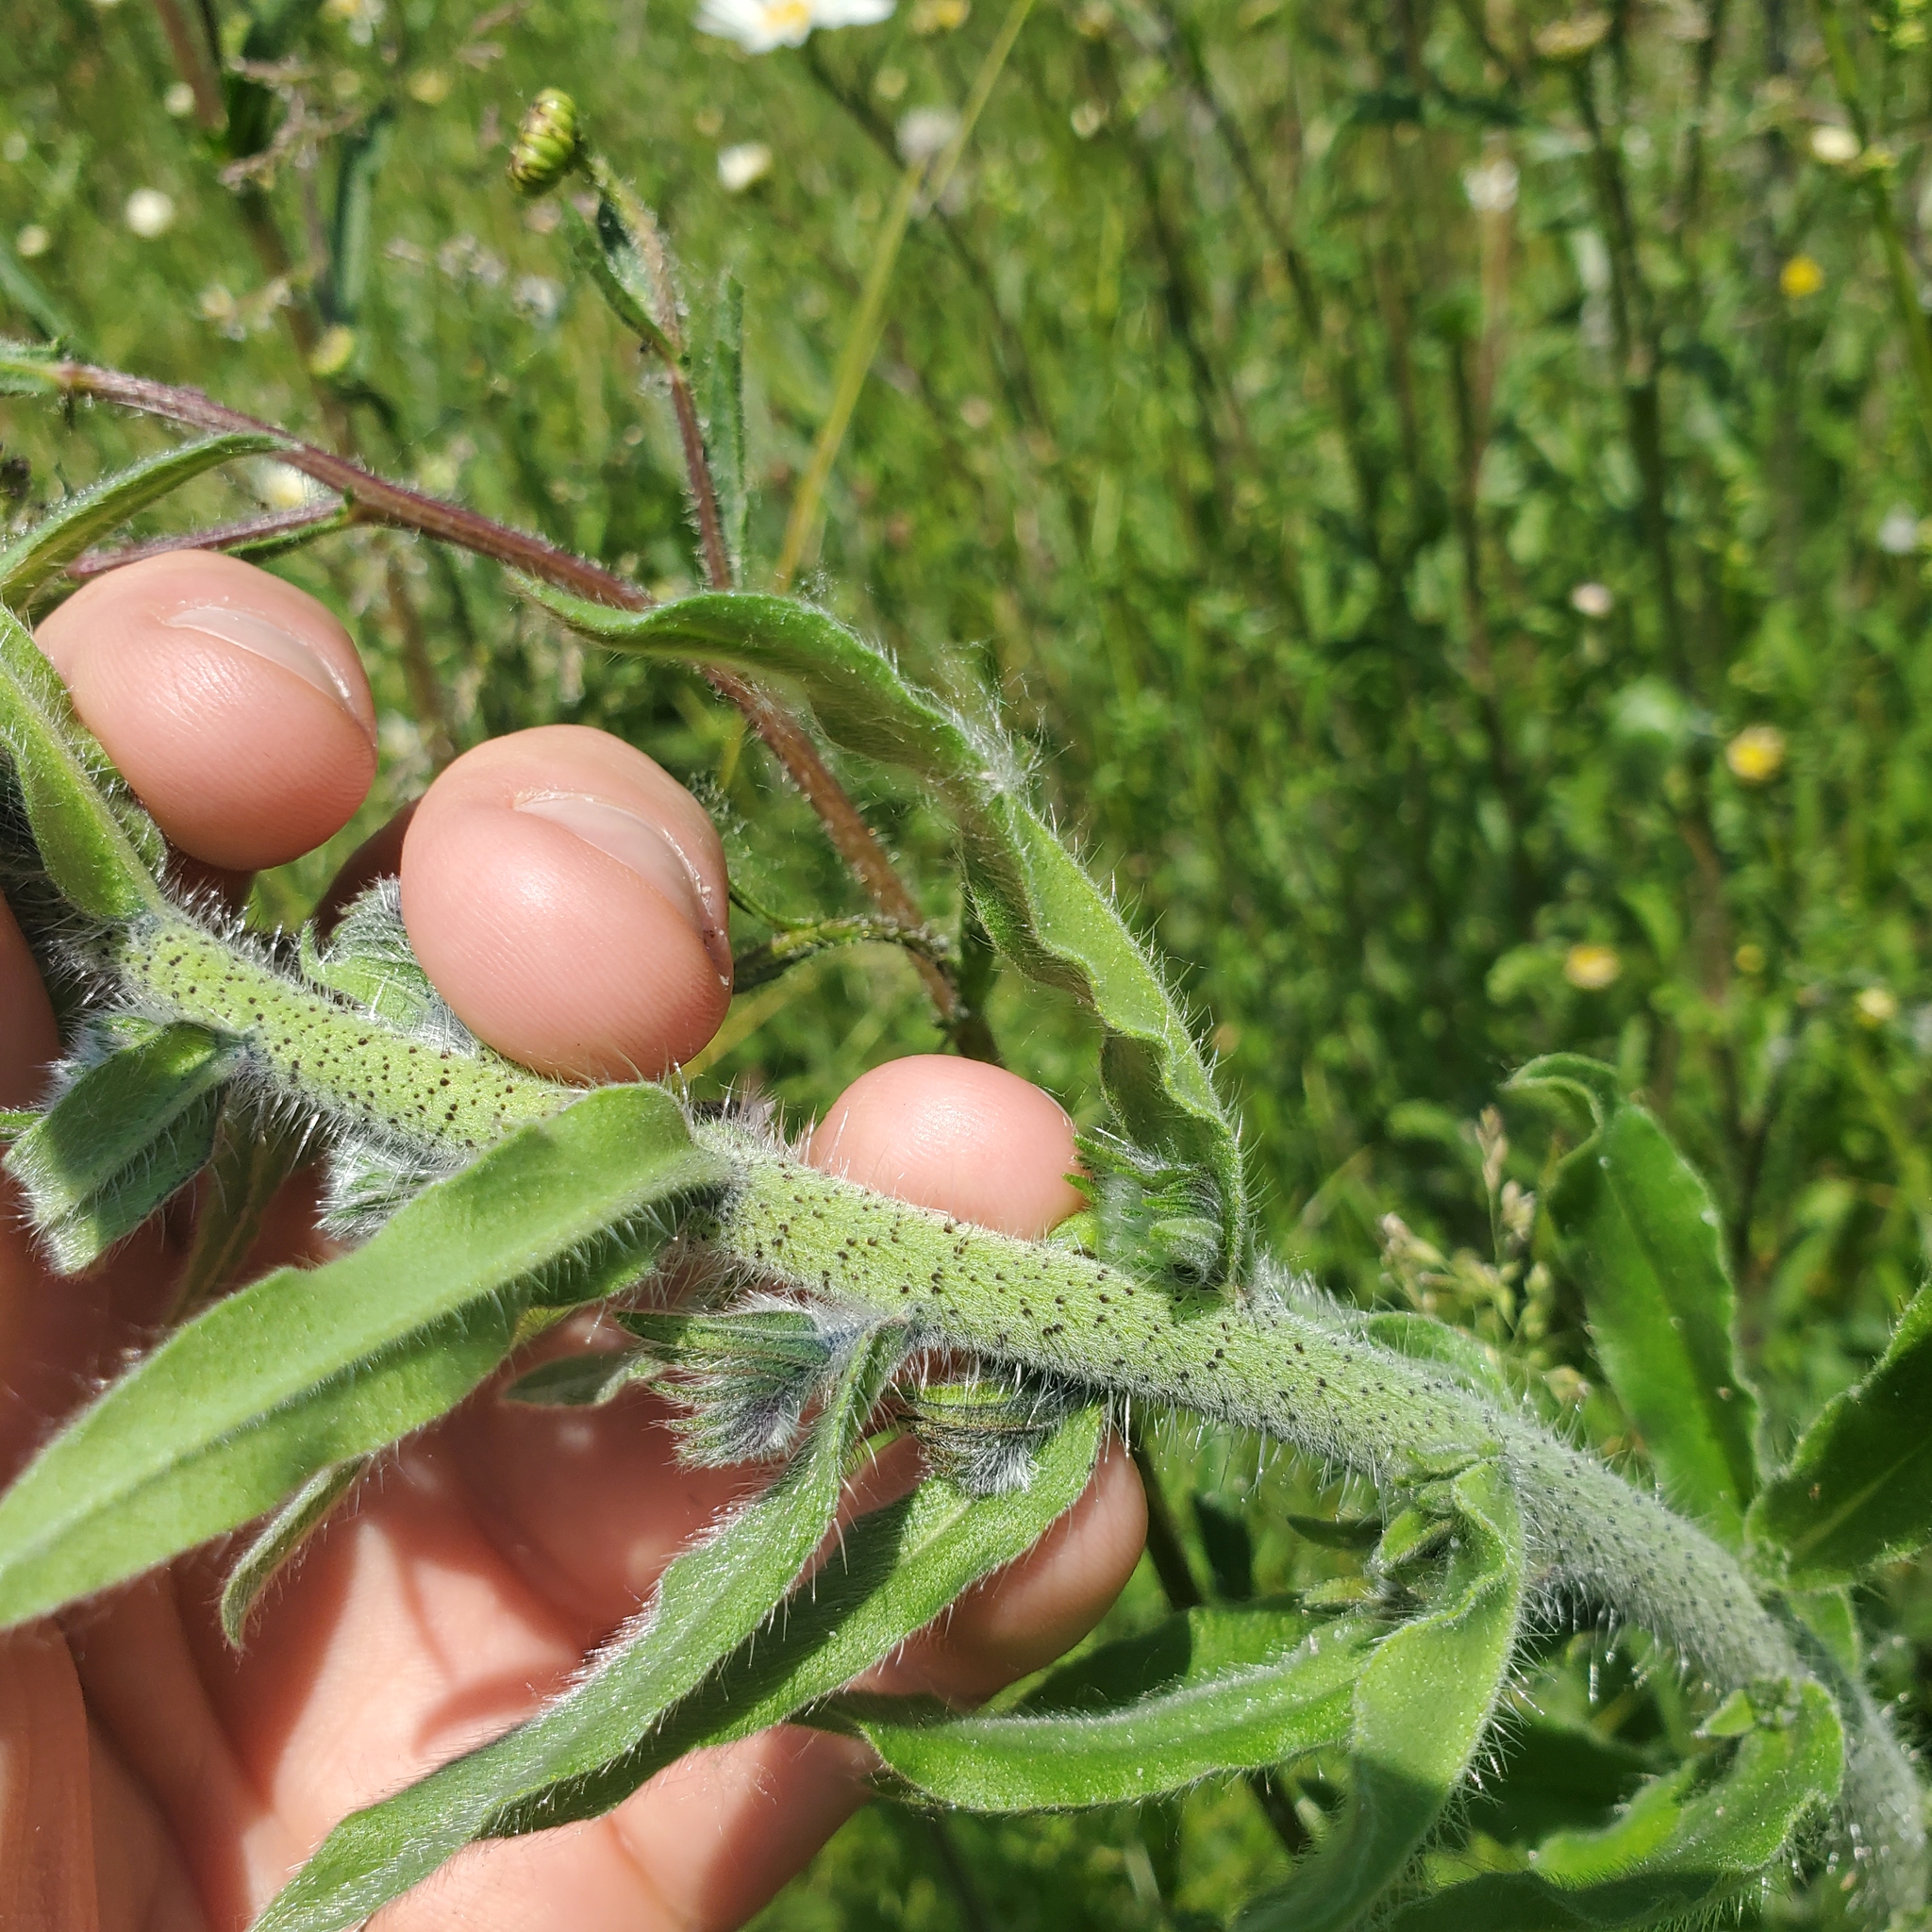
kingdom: Plantae
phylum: Tracheophyta
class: Magnoliopsida
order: Boraginales
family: Boraginaceae
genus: Echium
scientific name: Echium vulgare
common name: Common viper's bugloss
